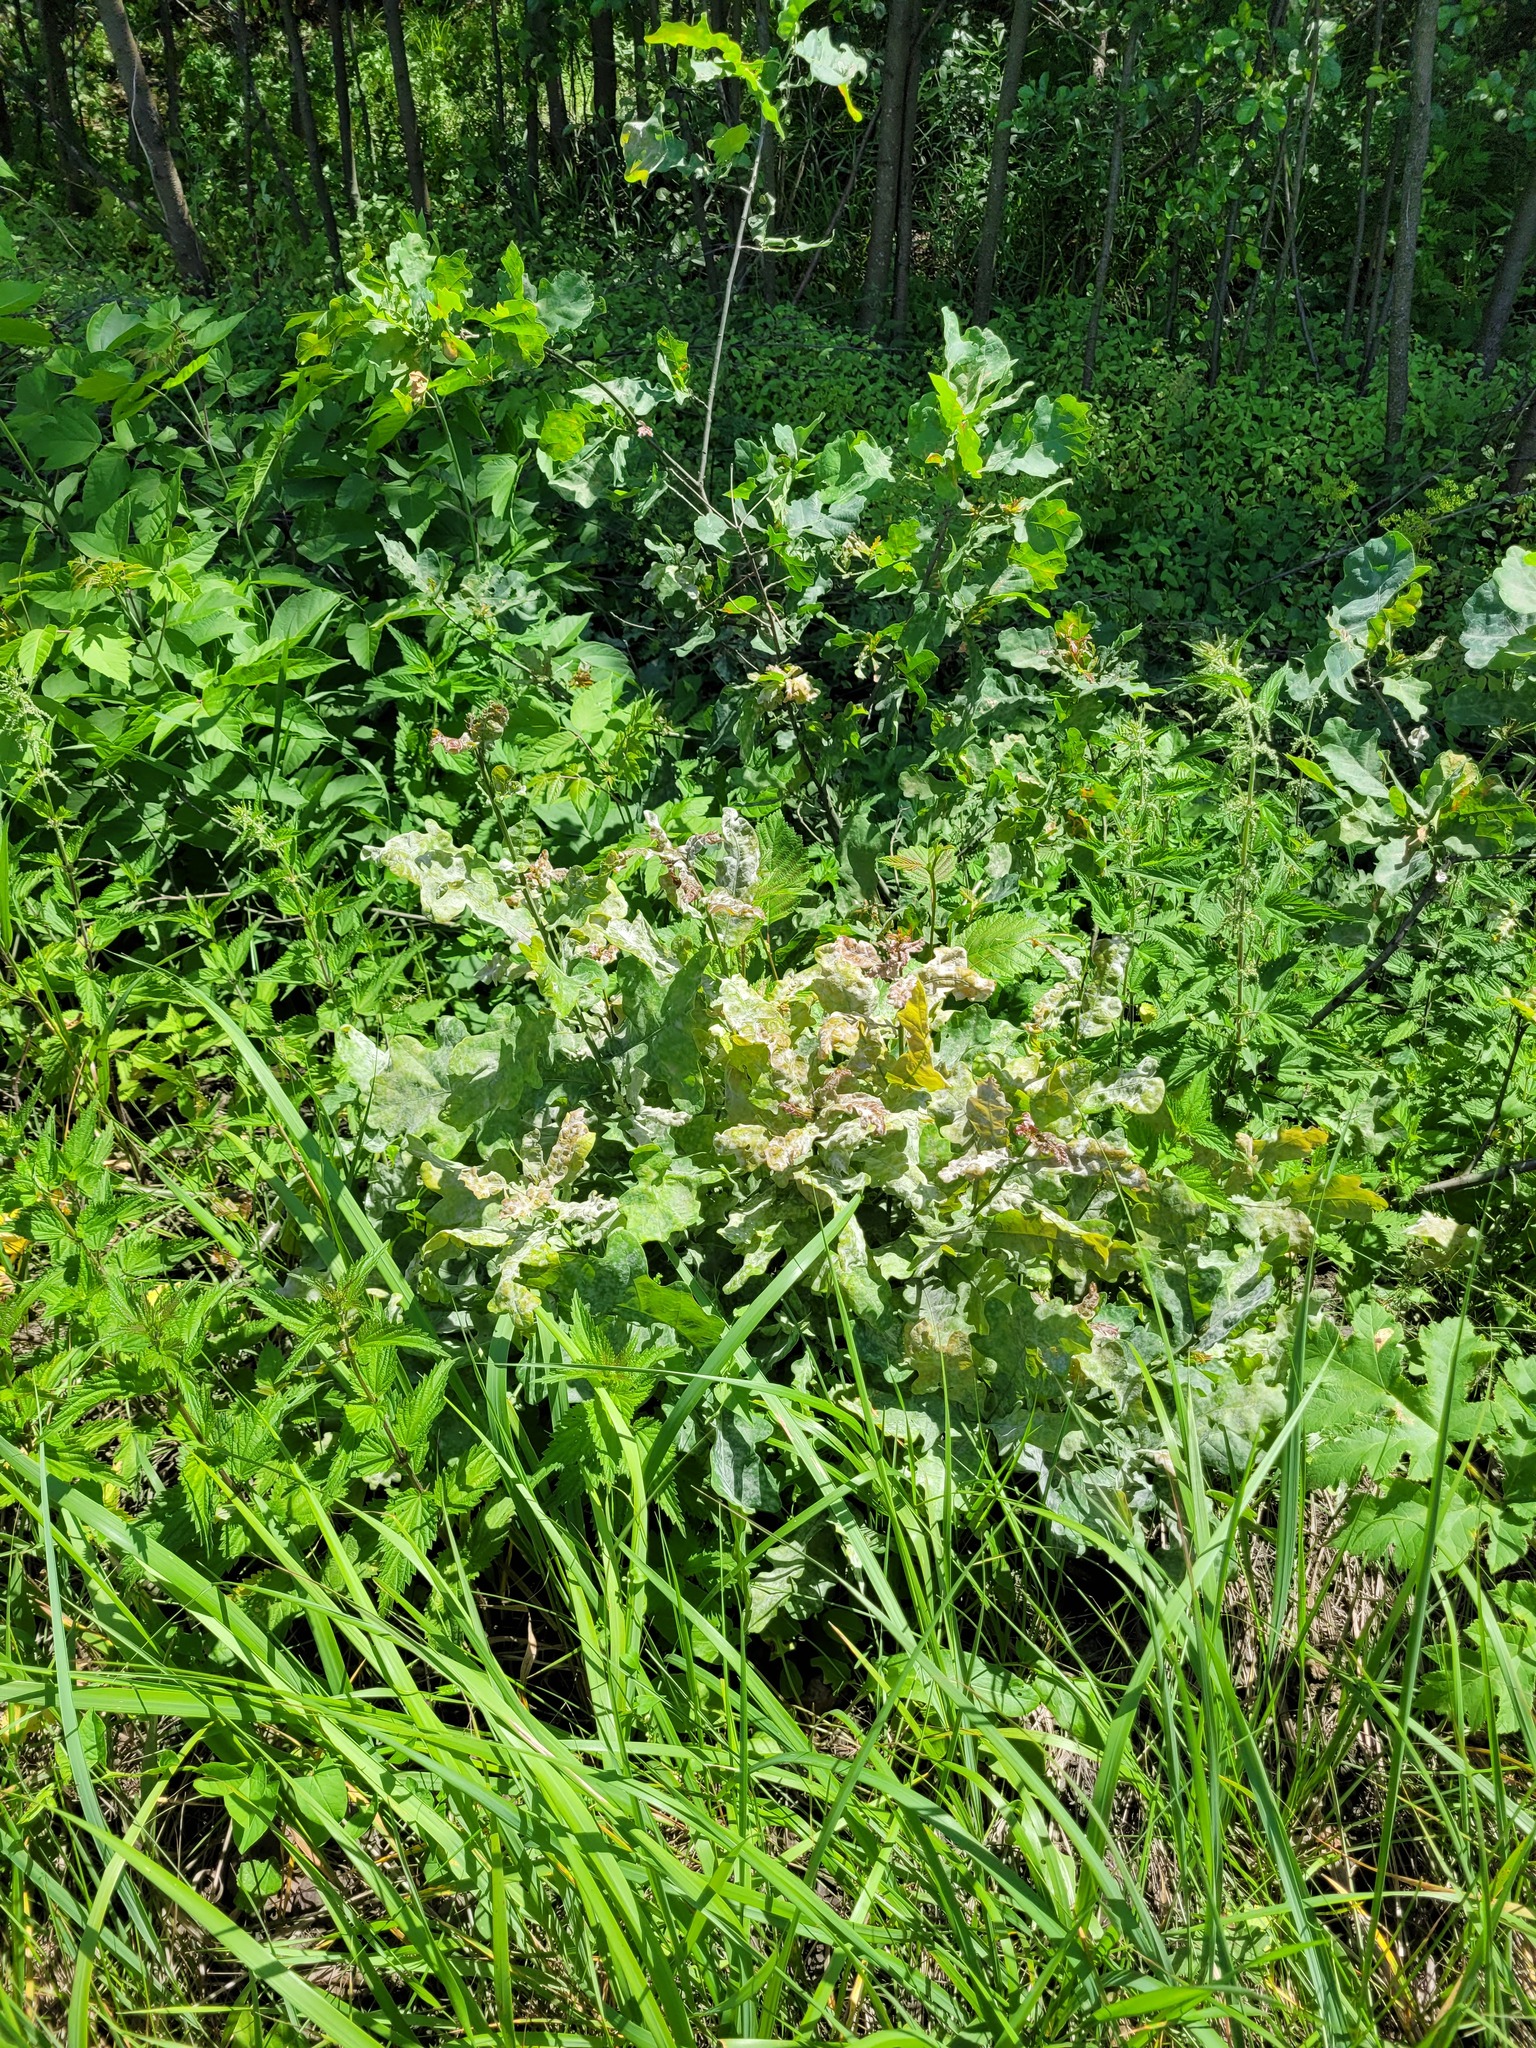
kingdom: Plantae
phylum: Tracheophyta
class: Magnoliopsida
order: Fagales
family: Fagaceae
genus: Quercus
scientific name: Quercus robur
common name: Pedunculate oak
